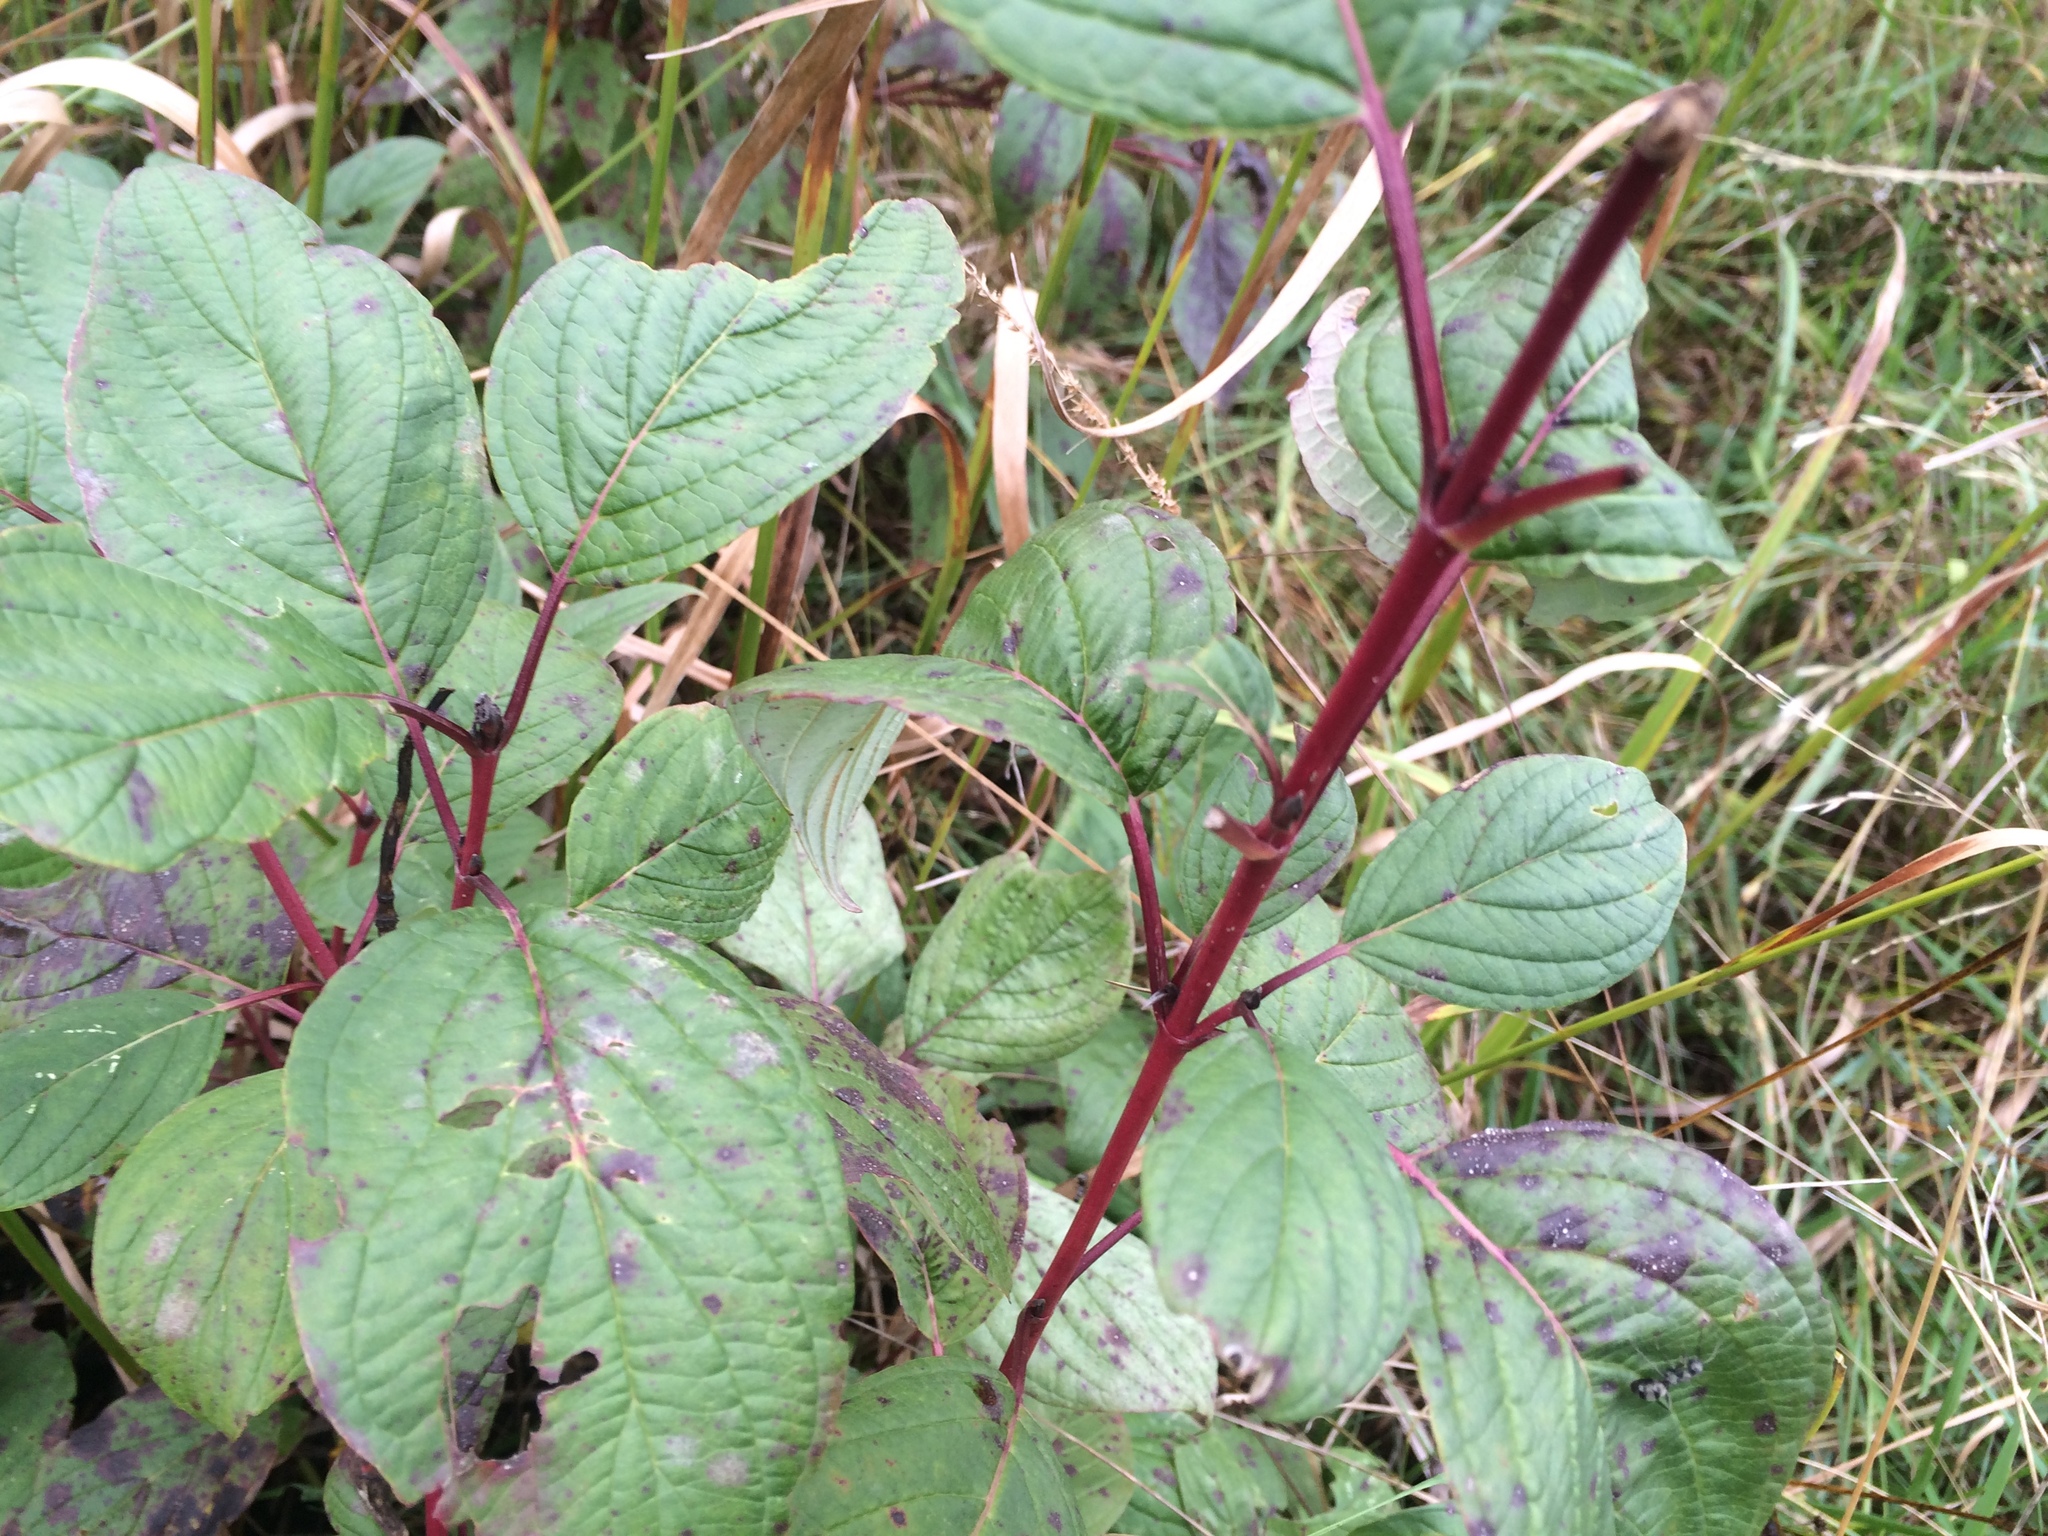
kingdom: Plantae
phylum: Tracheophyta
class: Magnoliopsida
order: Cornales
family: Cornaceae
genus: Cornus
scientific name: Cornus sericea
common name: Red-osier dogwood
